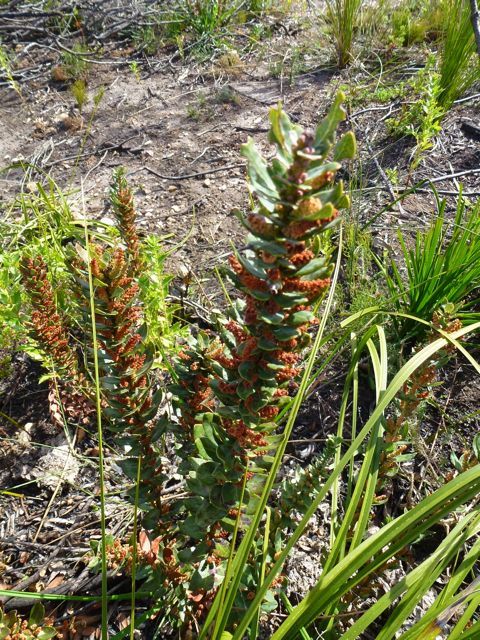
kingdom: Plantae
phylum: Tracheophyta
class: Magnoliopsida
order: Fagales
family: Myricaceae
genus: Morella
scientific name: Morella humilis
